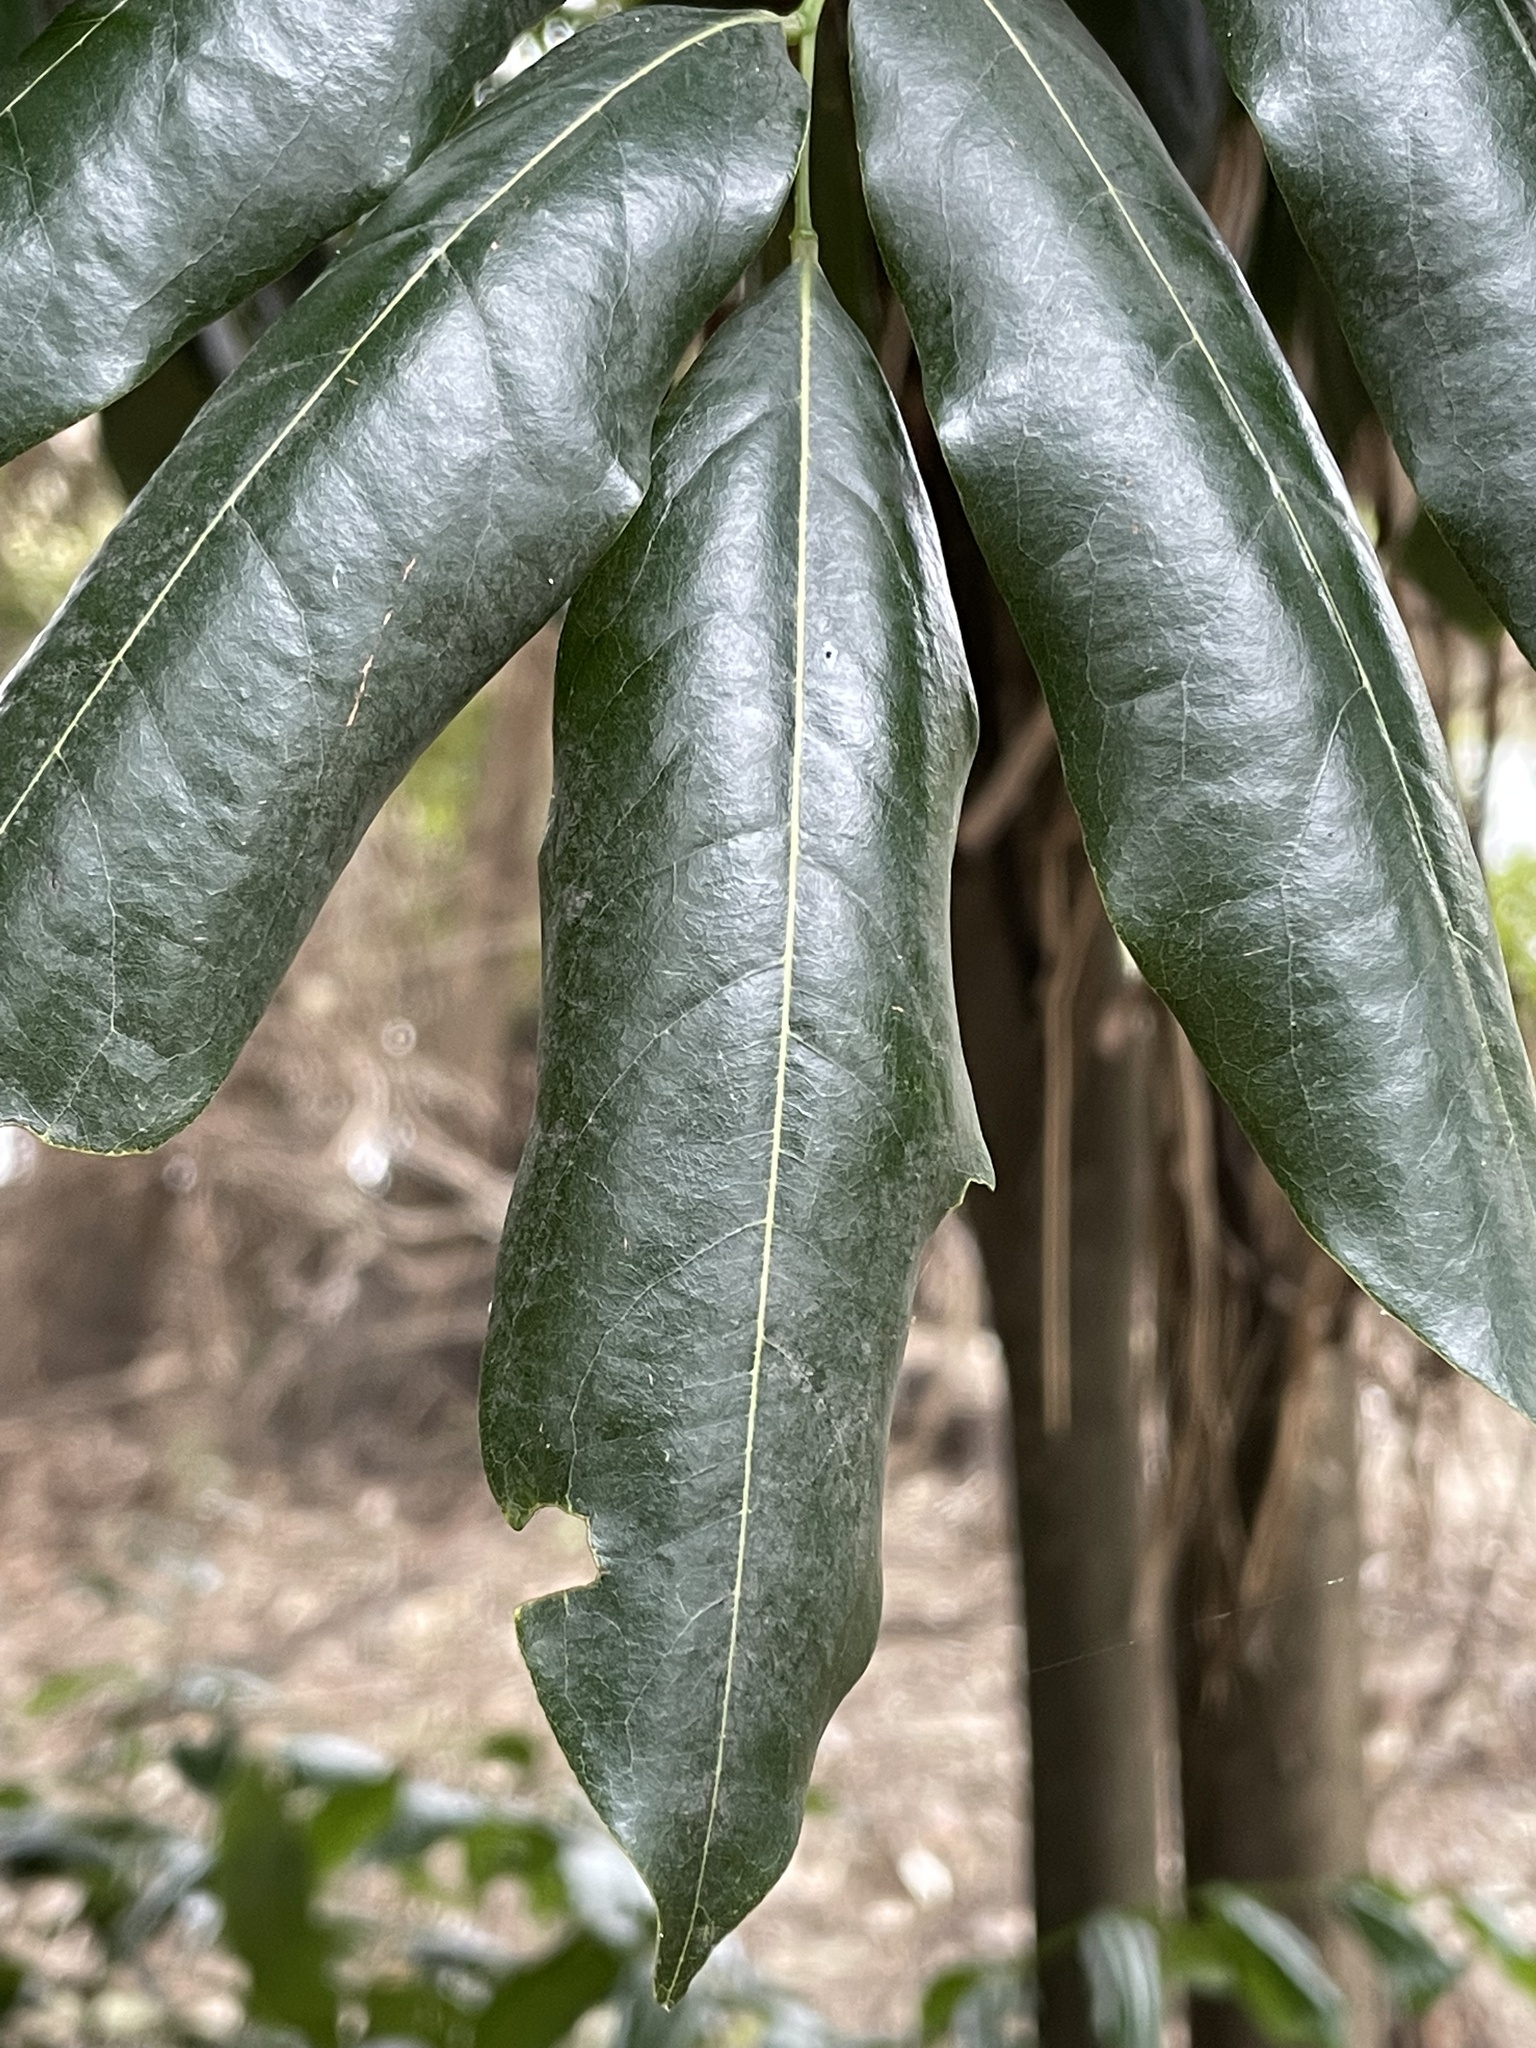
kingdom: Plantae
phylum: Tracheophyta
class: Magnoliopsida
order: Fabales
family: Fabaceae
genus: Castanospermum
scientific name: Castanospermum australe
